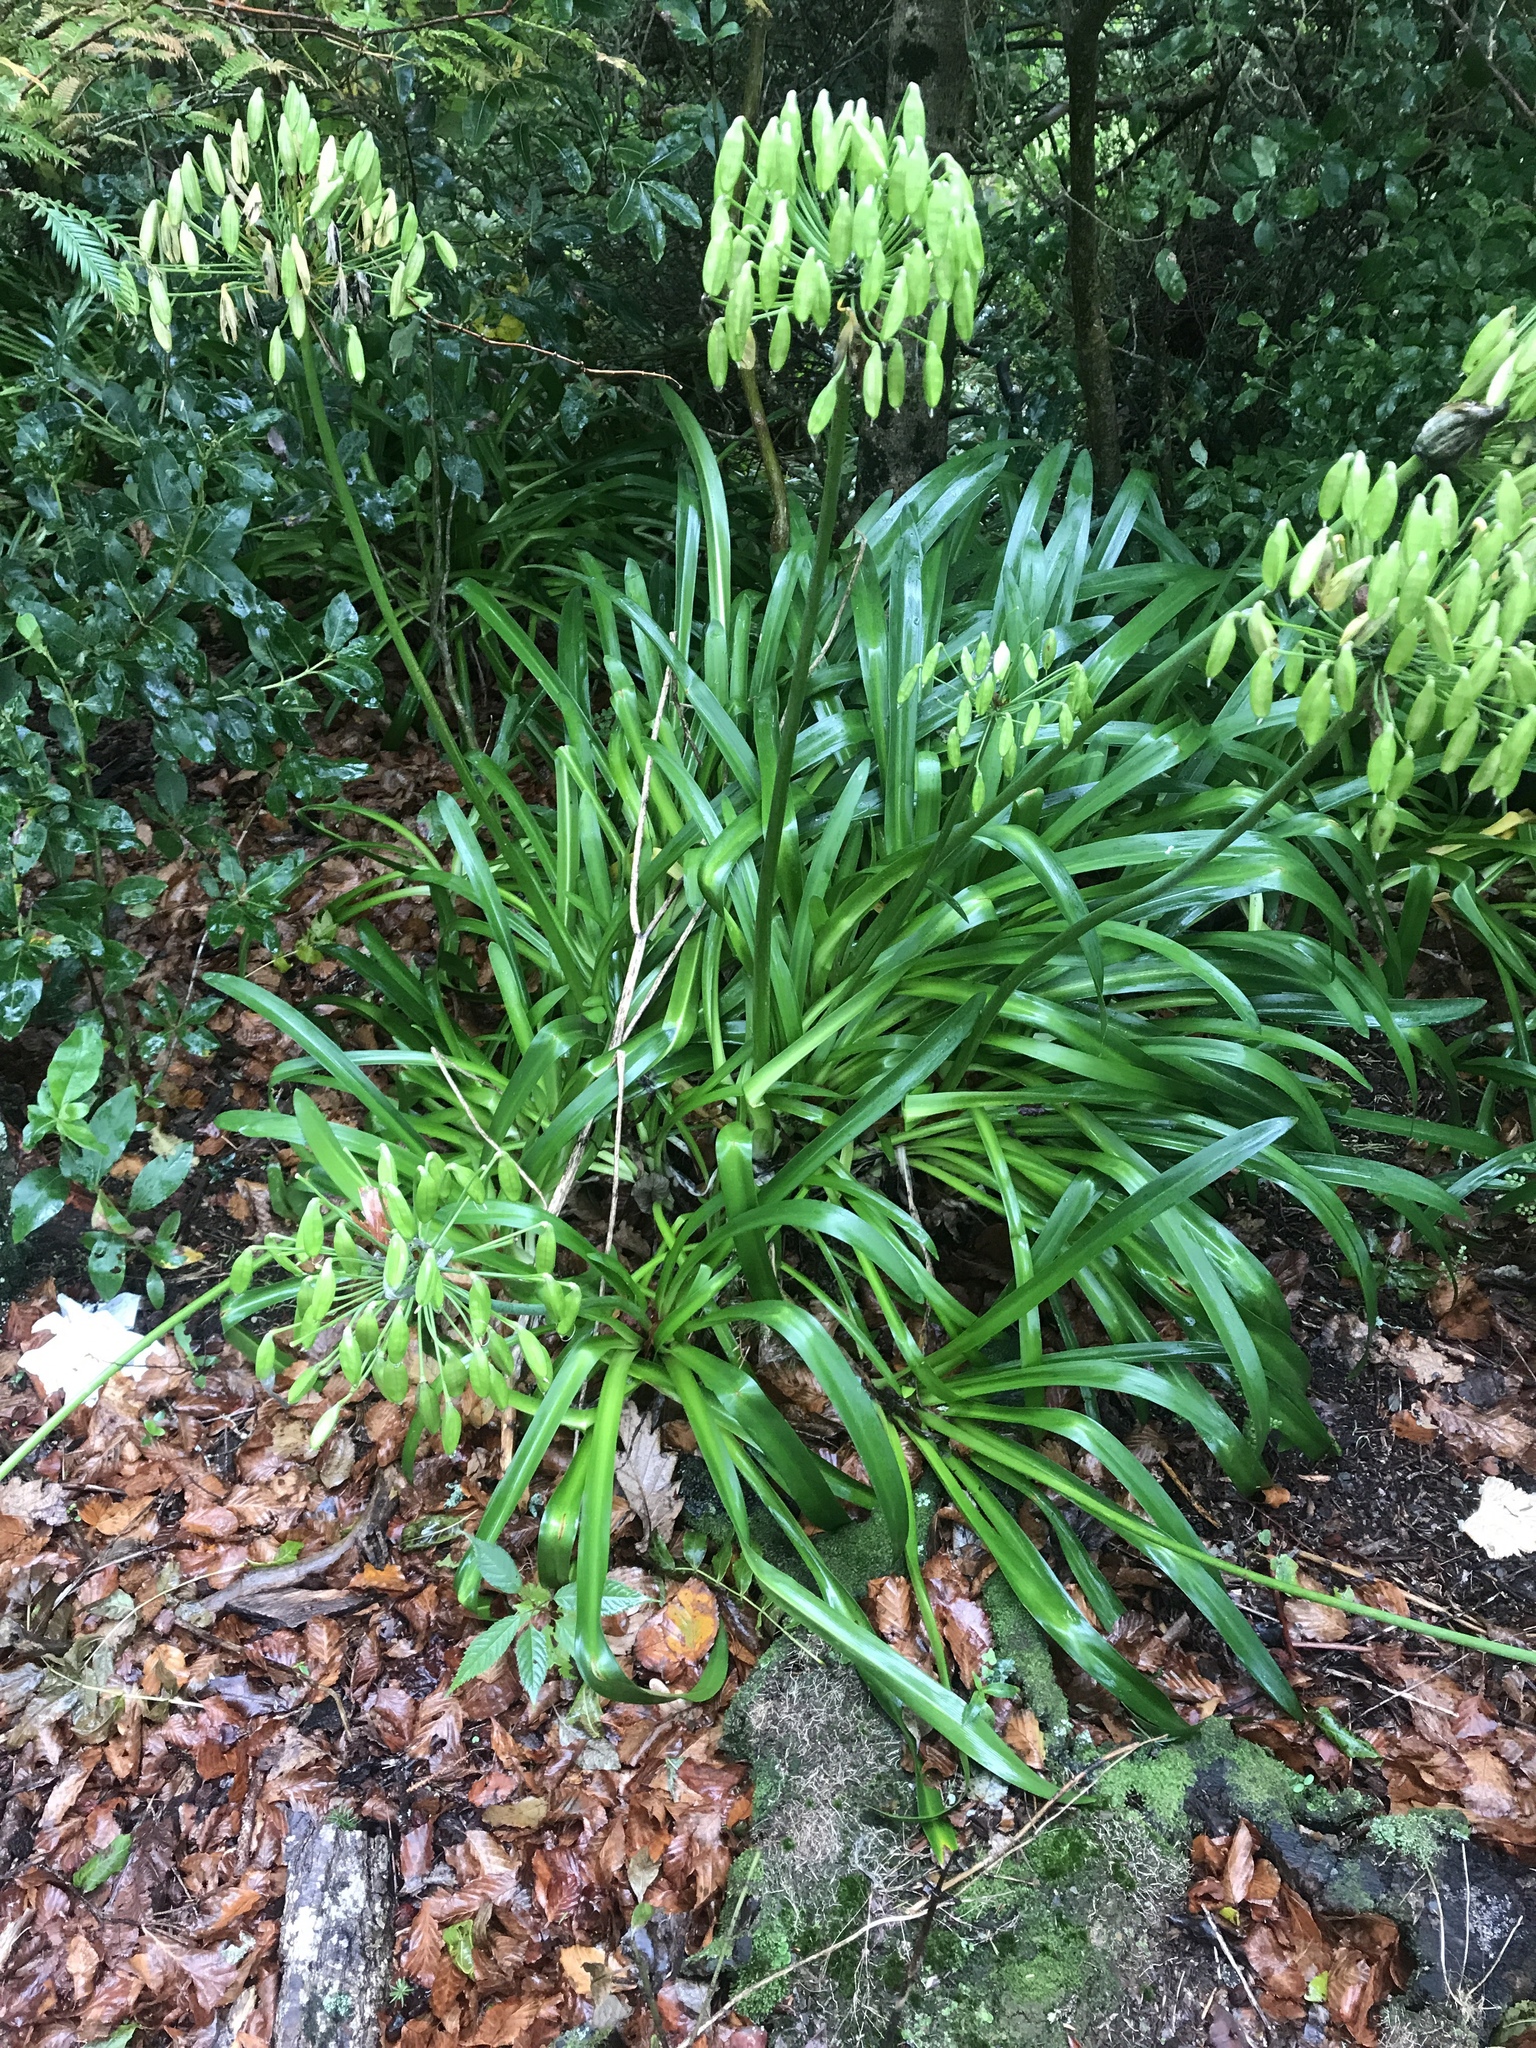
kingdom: Plantae
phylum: Tracheophyta
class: Liliopsida
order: Asparagales
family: Amaryllidaceae
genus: Agapanthus
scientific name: Agapanthus praecox
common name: African-lily
